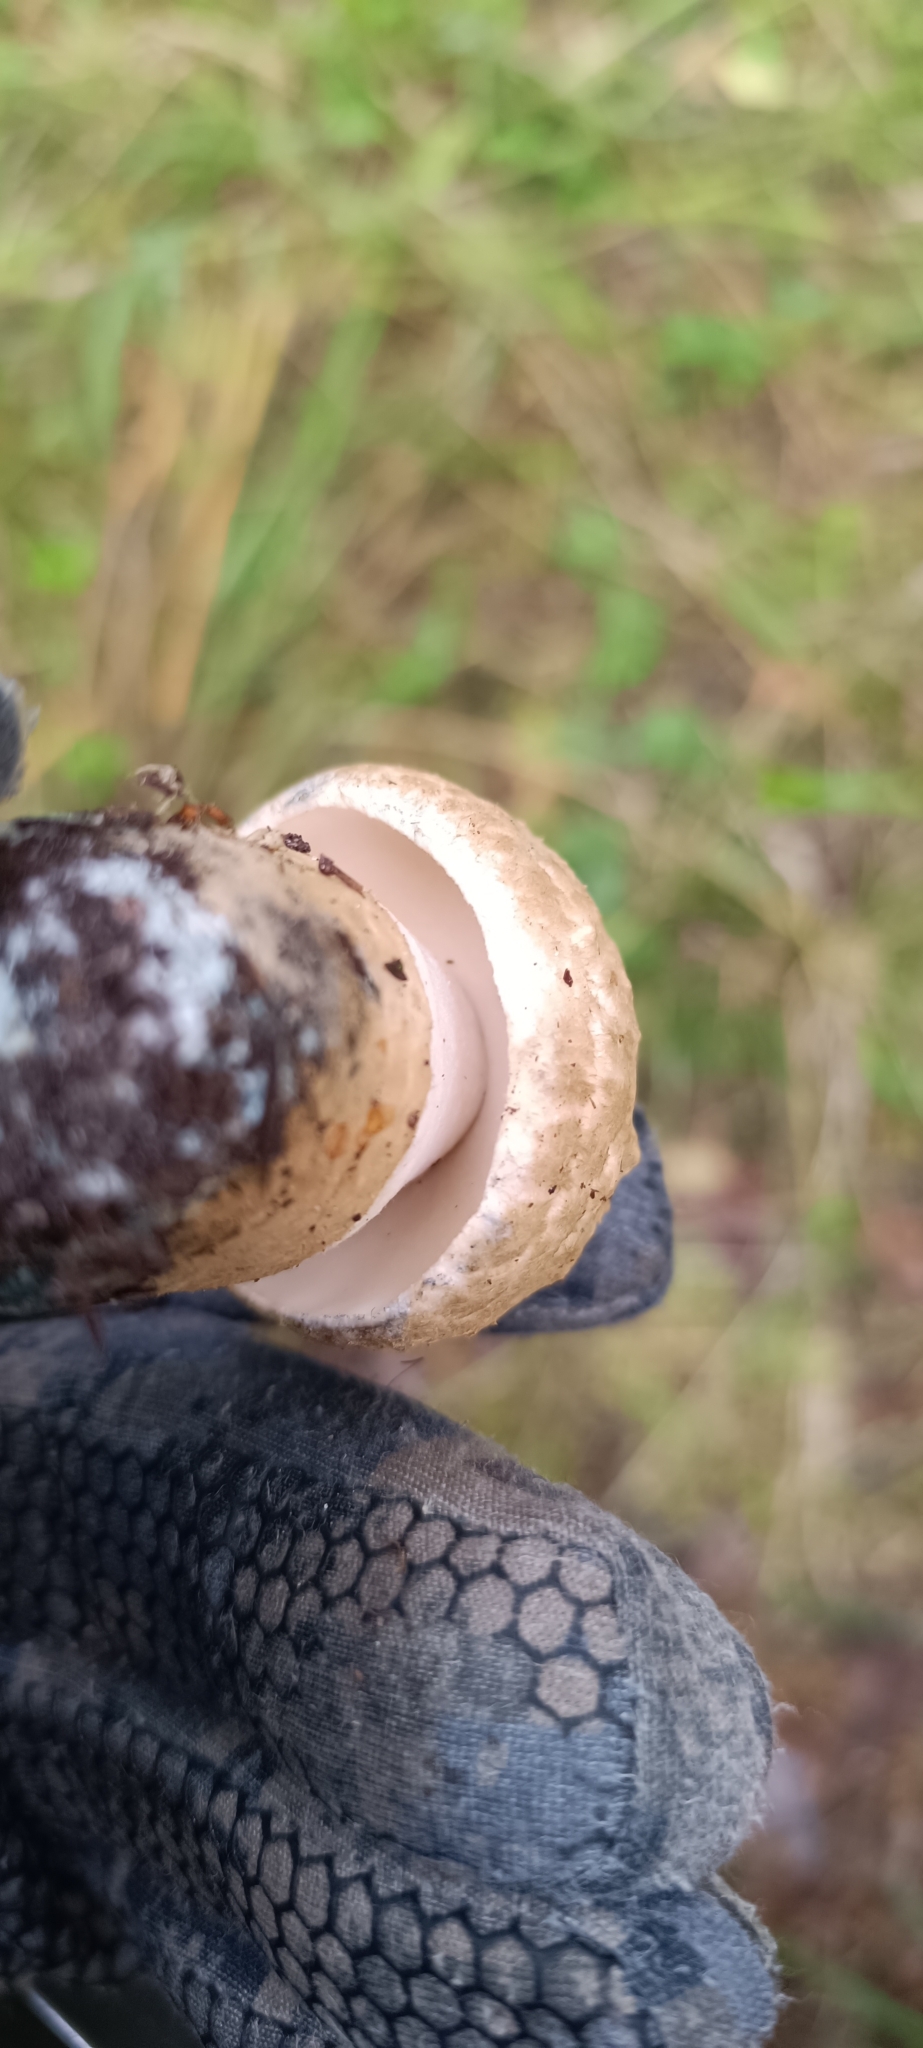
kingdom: Fungi
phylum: Basidiomycota
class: Agaricomycetes
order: Boletales
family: Gyroporaceae
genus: Gyroporus
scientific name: Gyroporus cyanescens
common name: Cornflower bolete
